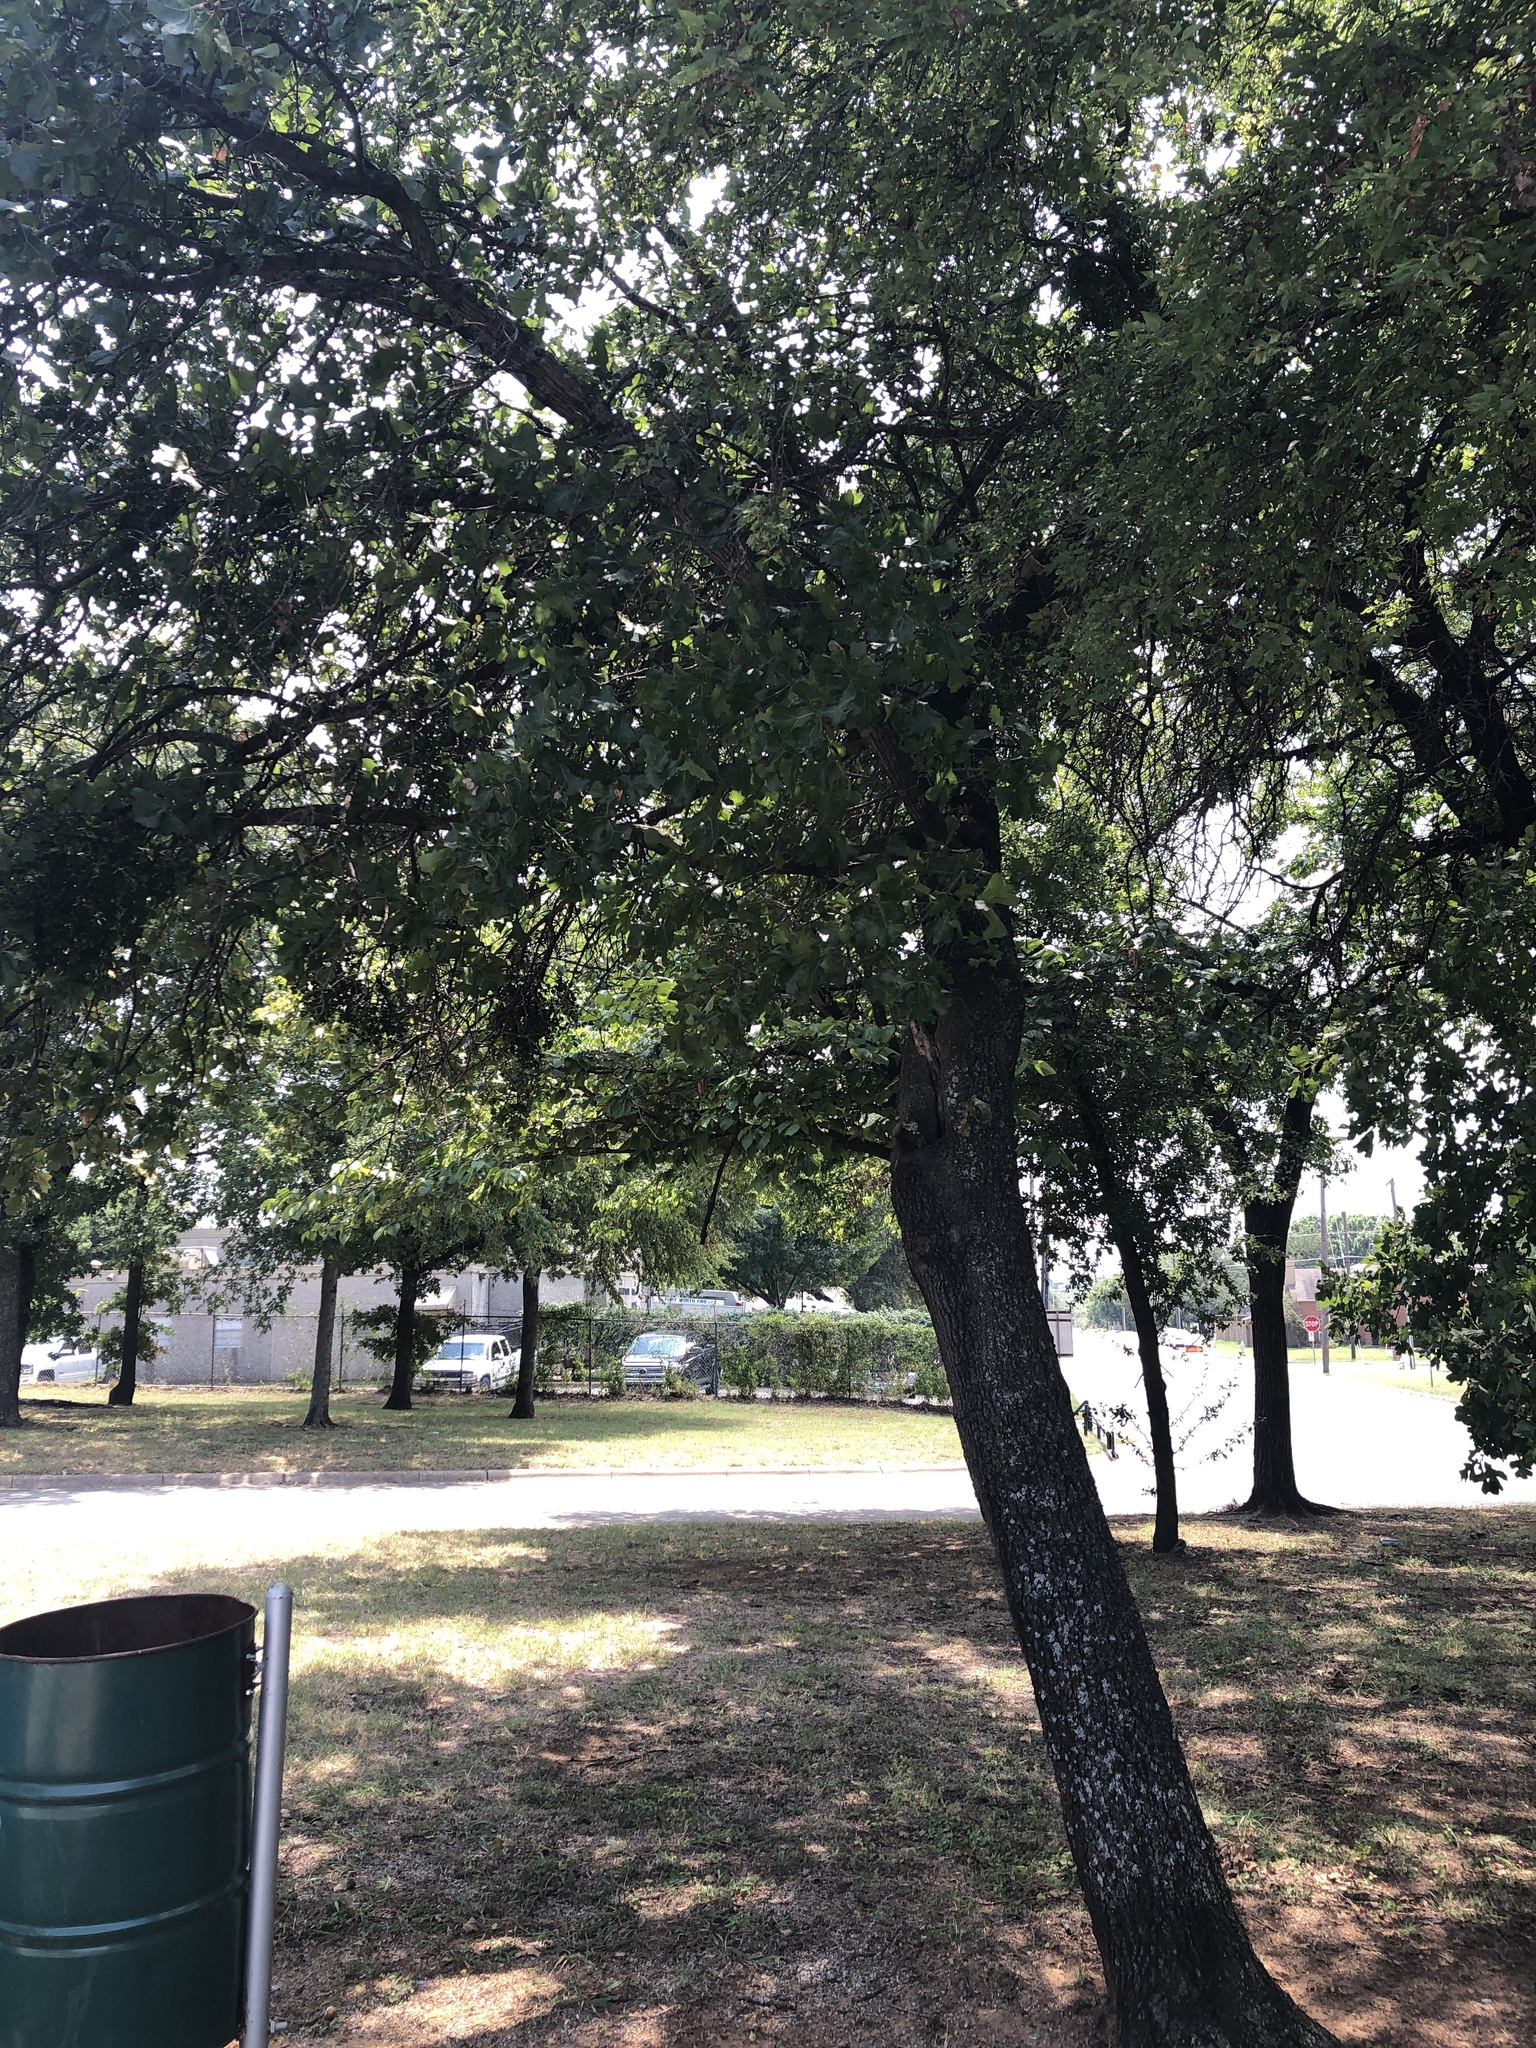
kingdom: Plantae
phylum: Tracheophyta
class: Magnoliopsida
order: Fagales
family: Fagaceae
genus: Quercus
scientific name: Quercus marilandica
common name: Blackjack oak
